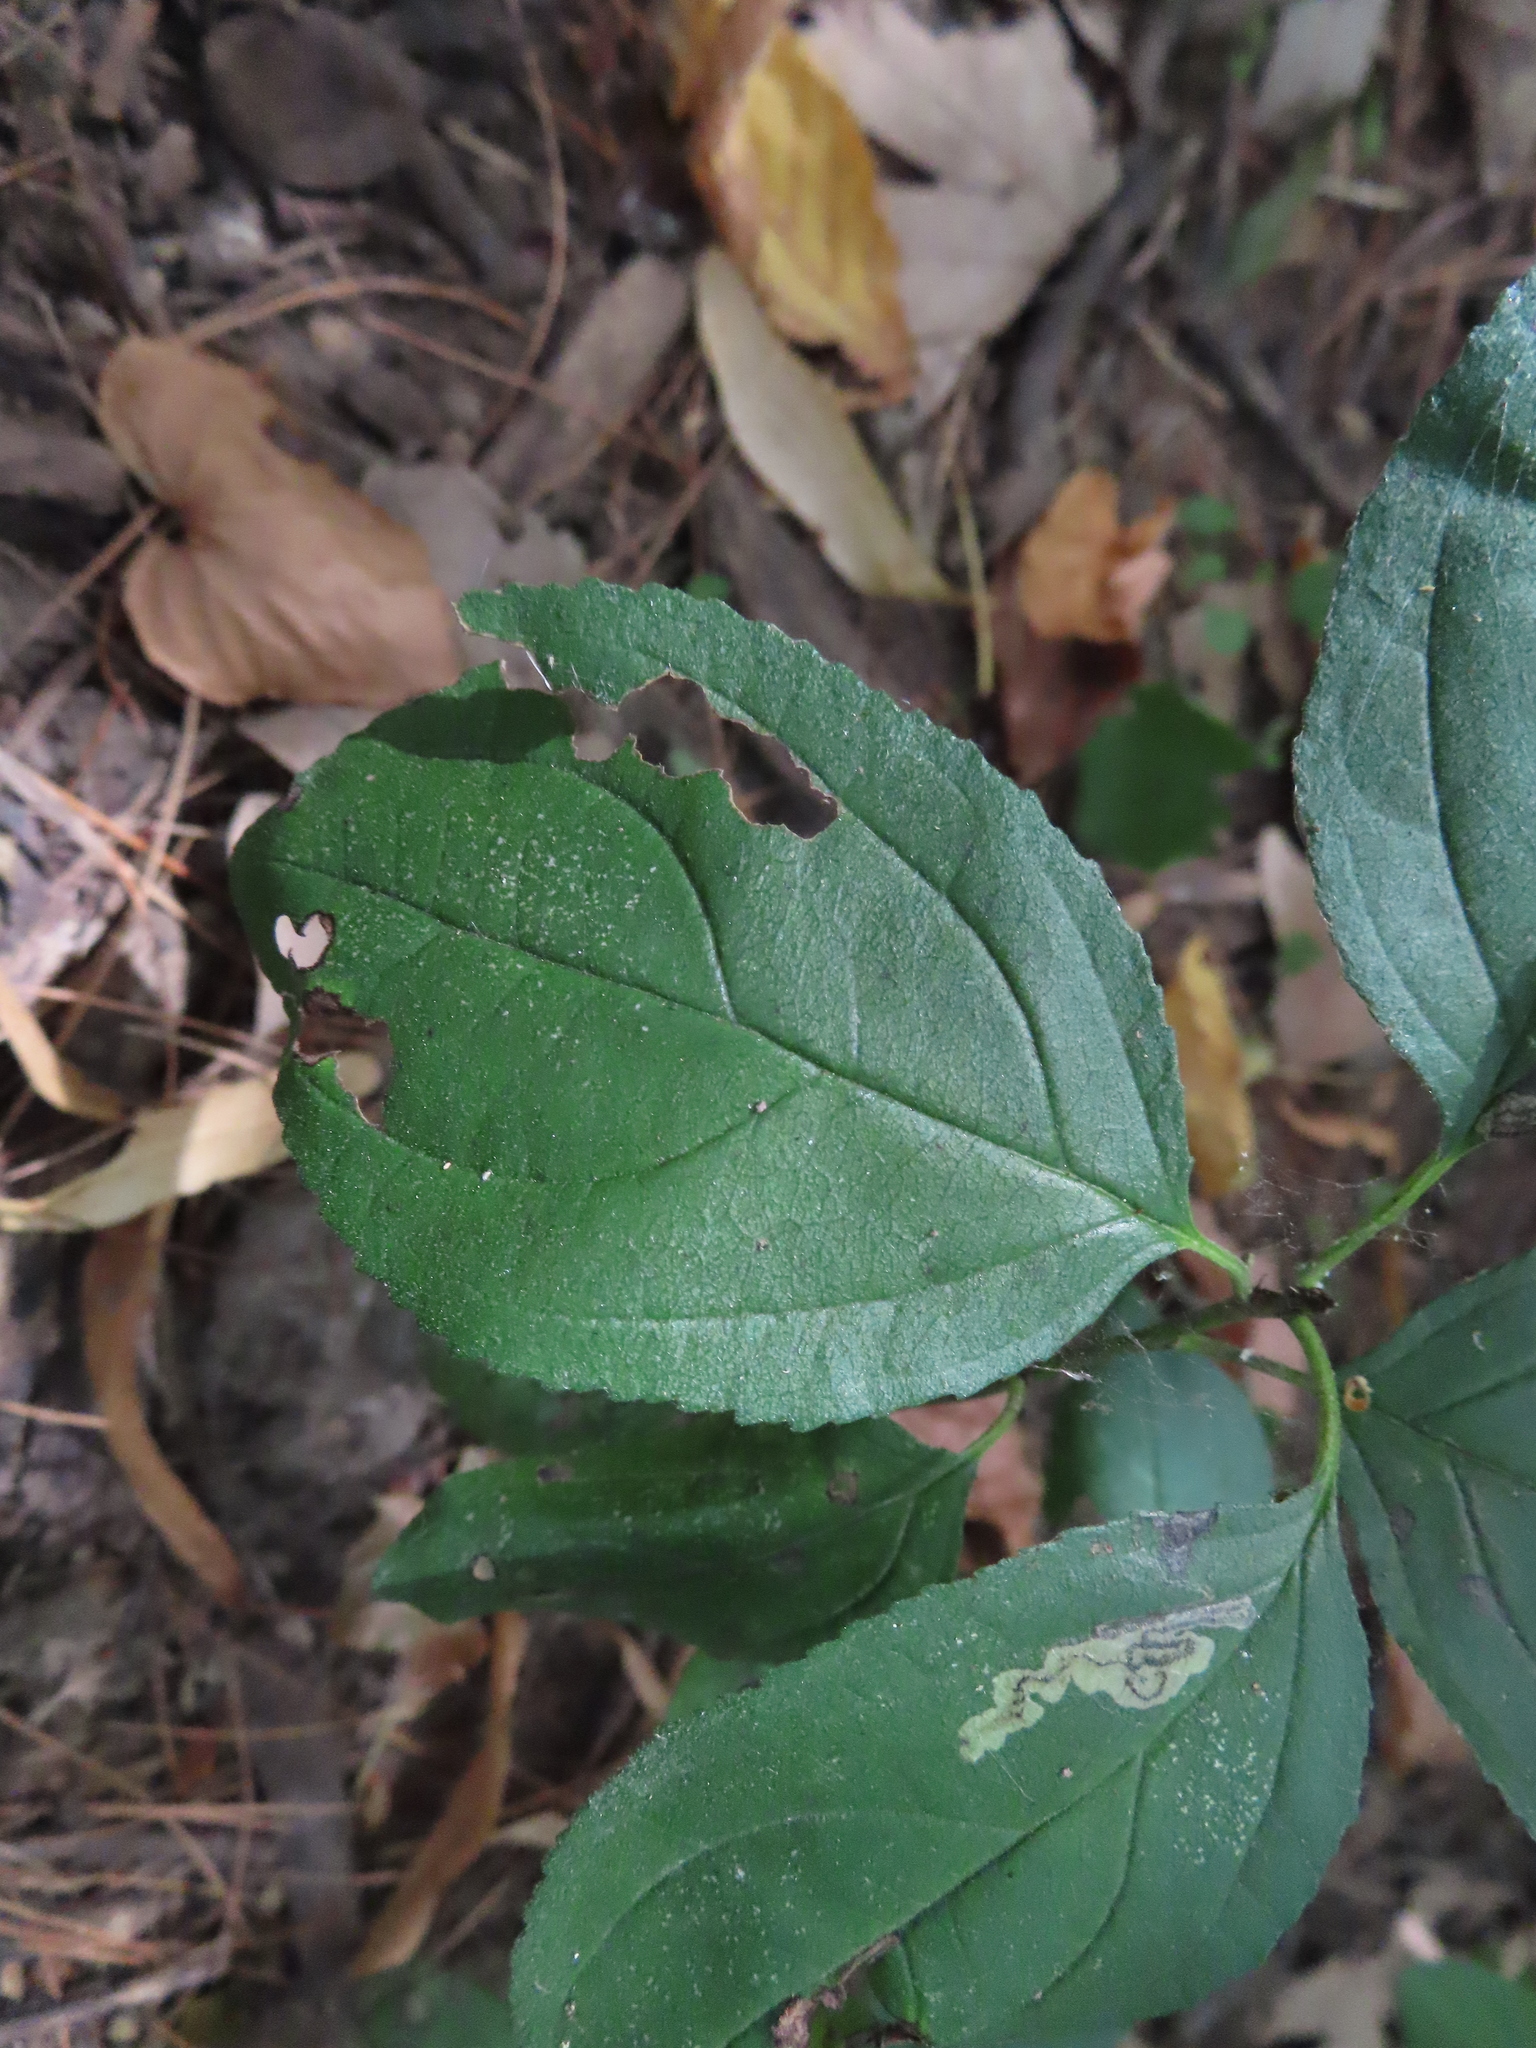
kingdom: Animalia
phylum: Arthropoda
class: Insecta
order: Lepidoptera
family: Nepticulidae
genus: Stigmella
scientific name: Stigmella rhamnicola
